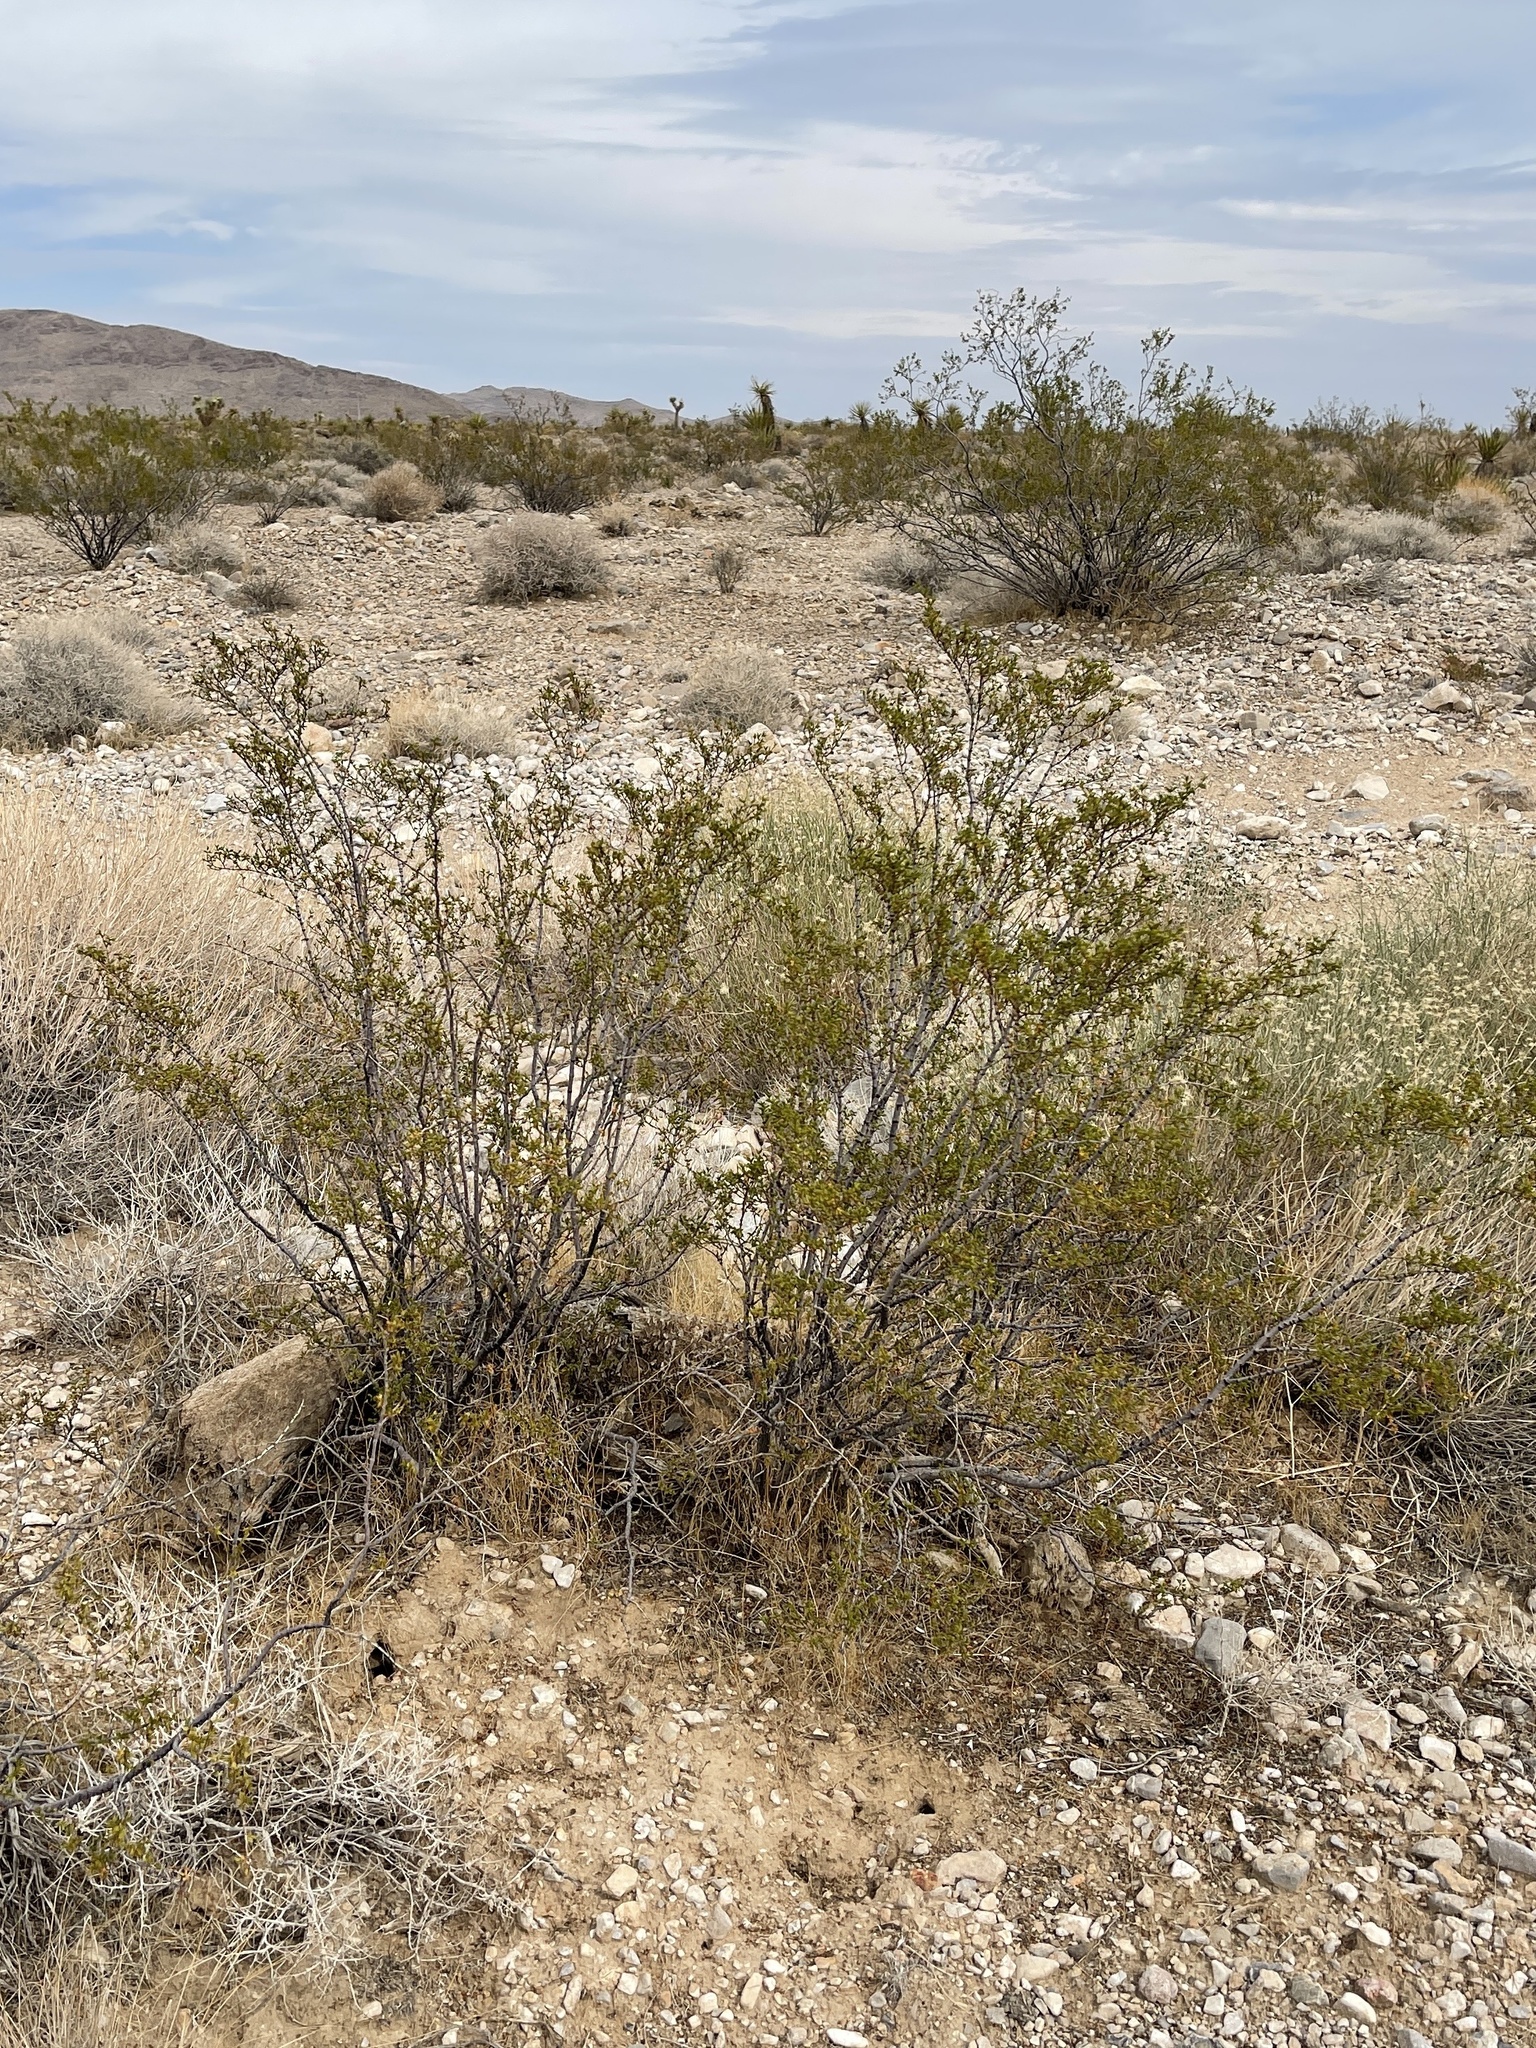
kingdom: Plantae
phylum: Tracheophyta
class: Magnoliopsida
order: Zygophyllales
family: Zygophyllaceae
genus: Larrea
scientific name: Larrea tridentata
